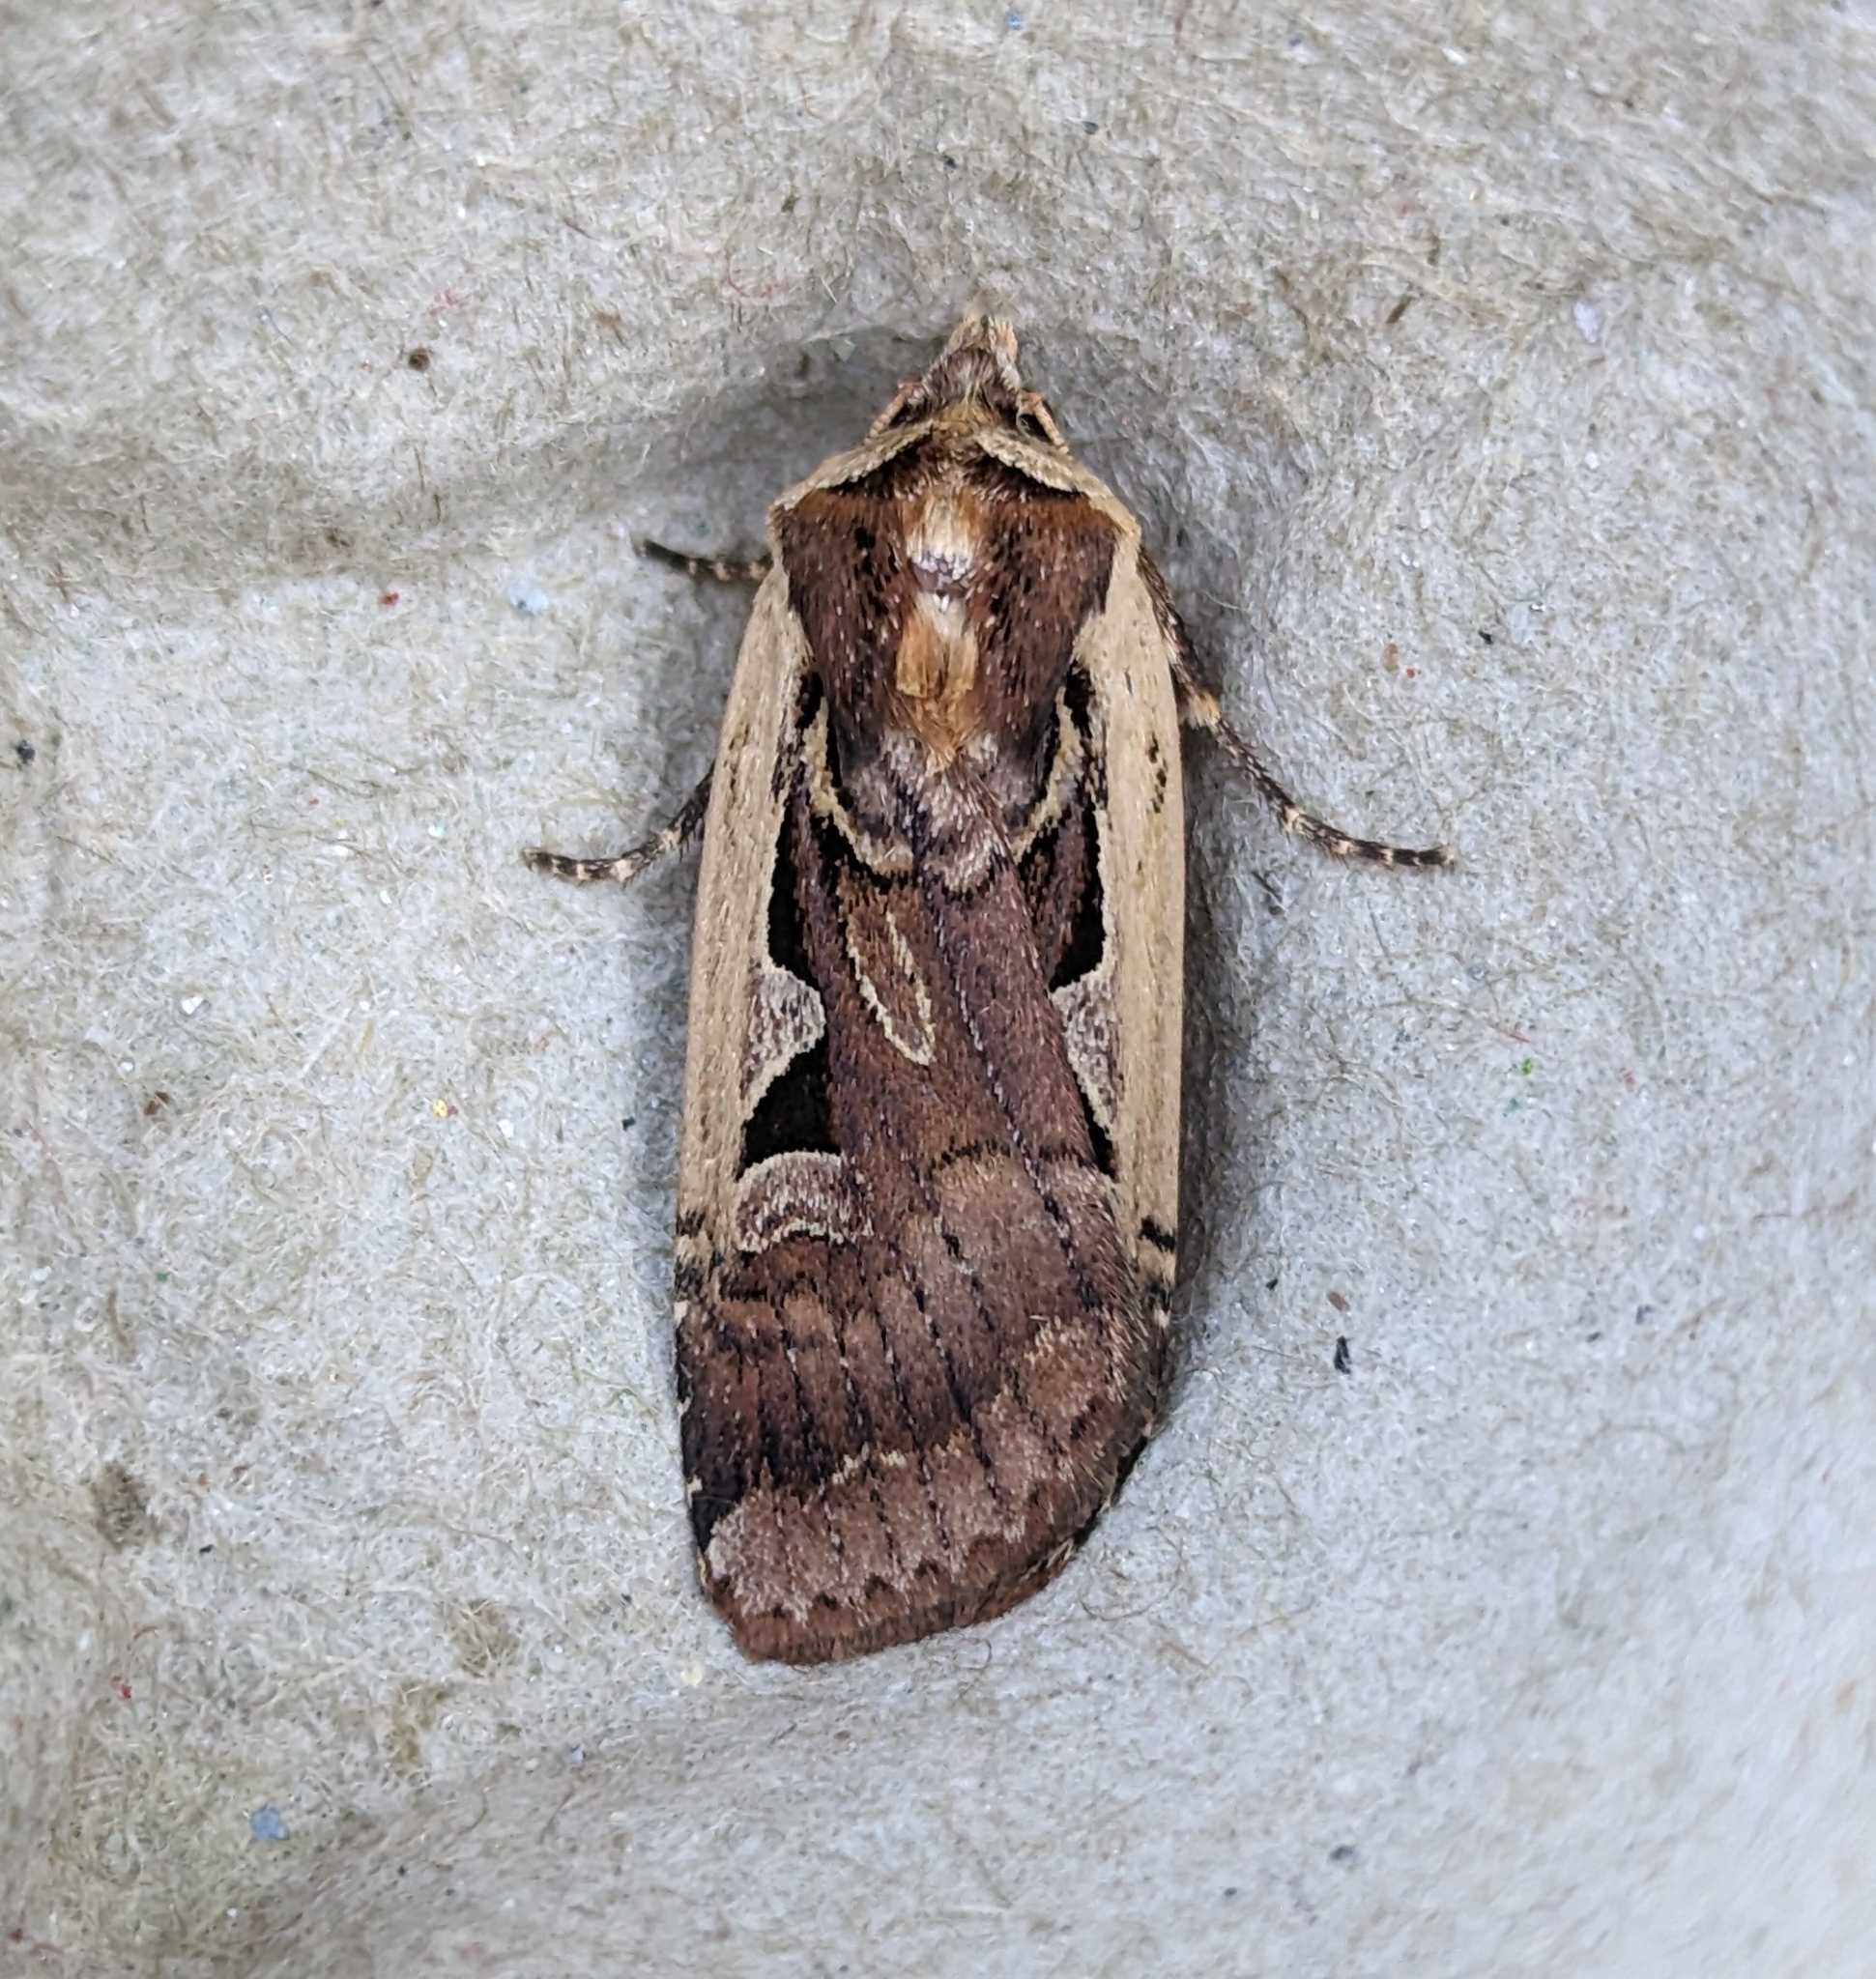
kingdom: Animalia
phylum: Arthropoda
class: Insecta
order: Lepidoptera
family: Noctuidae
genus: Parabagrotis
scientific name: Parabagrotis sulinaris
